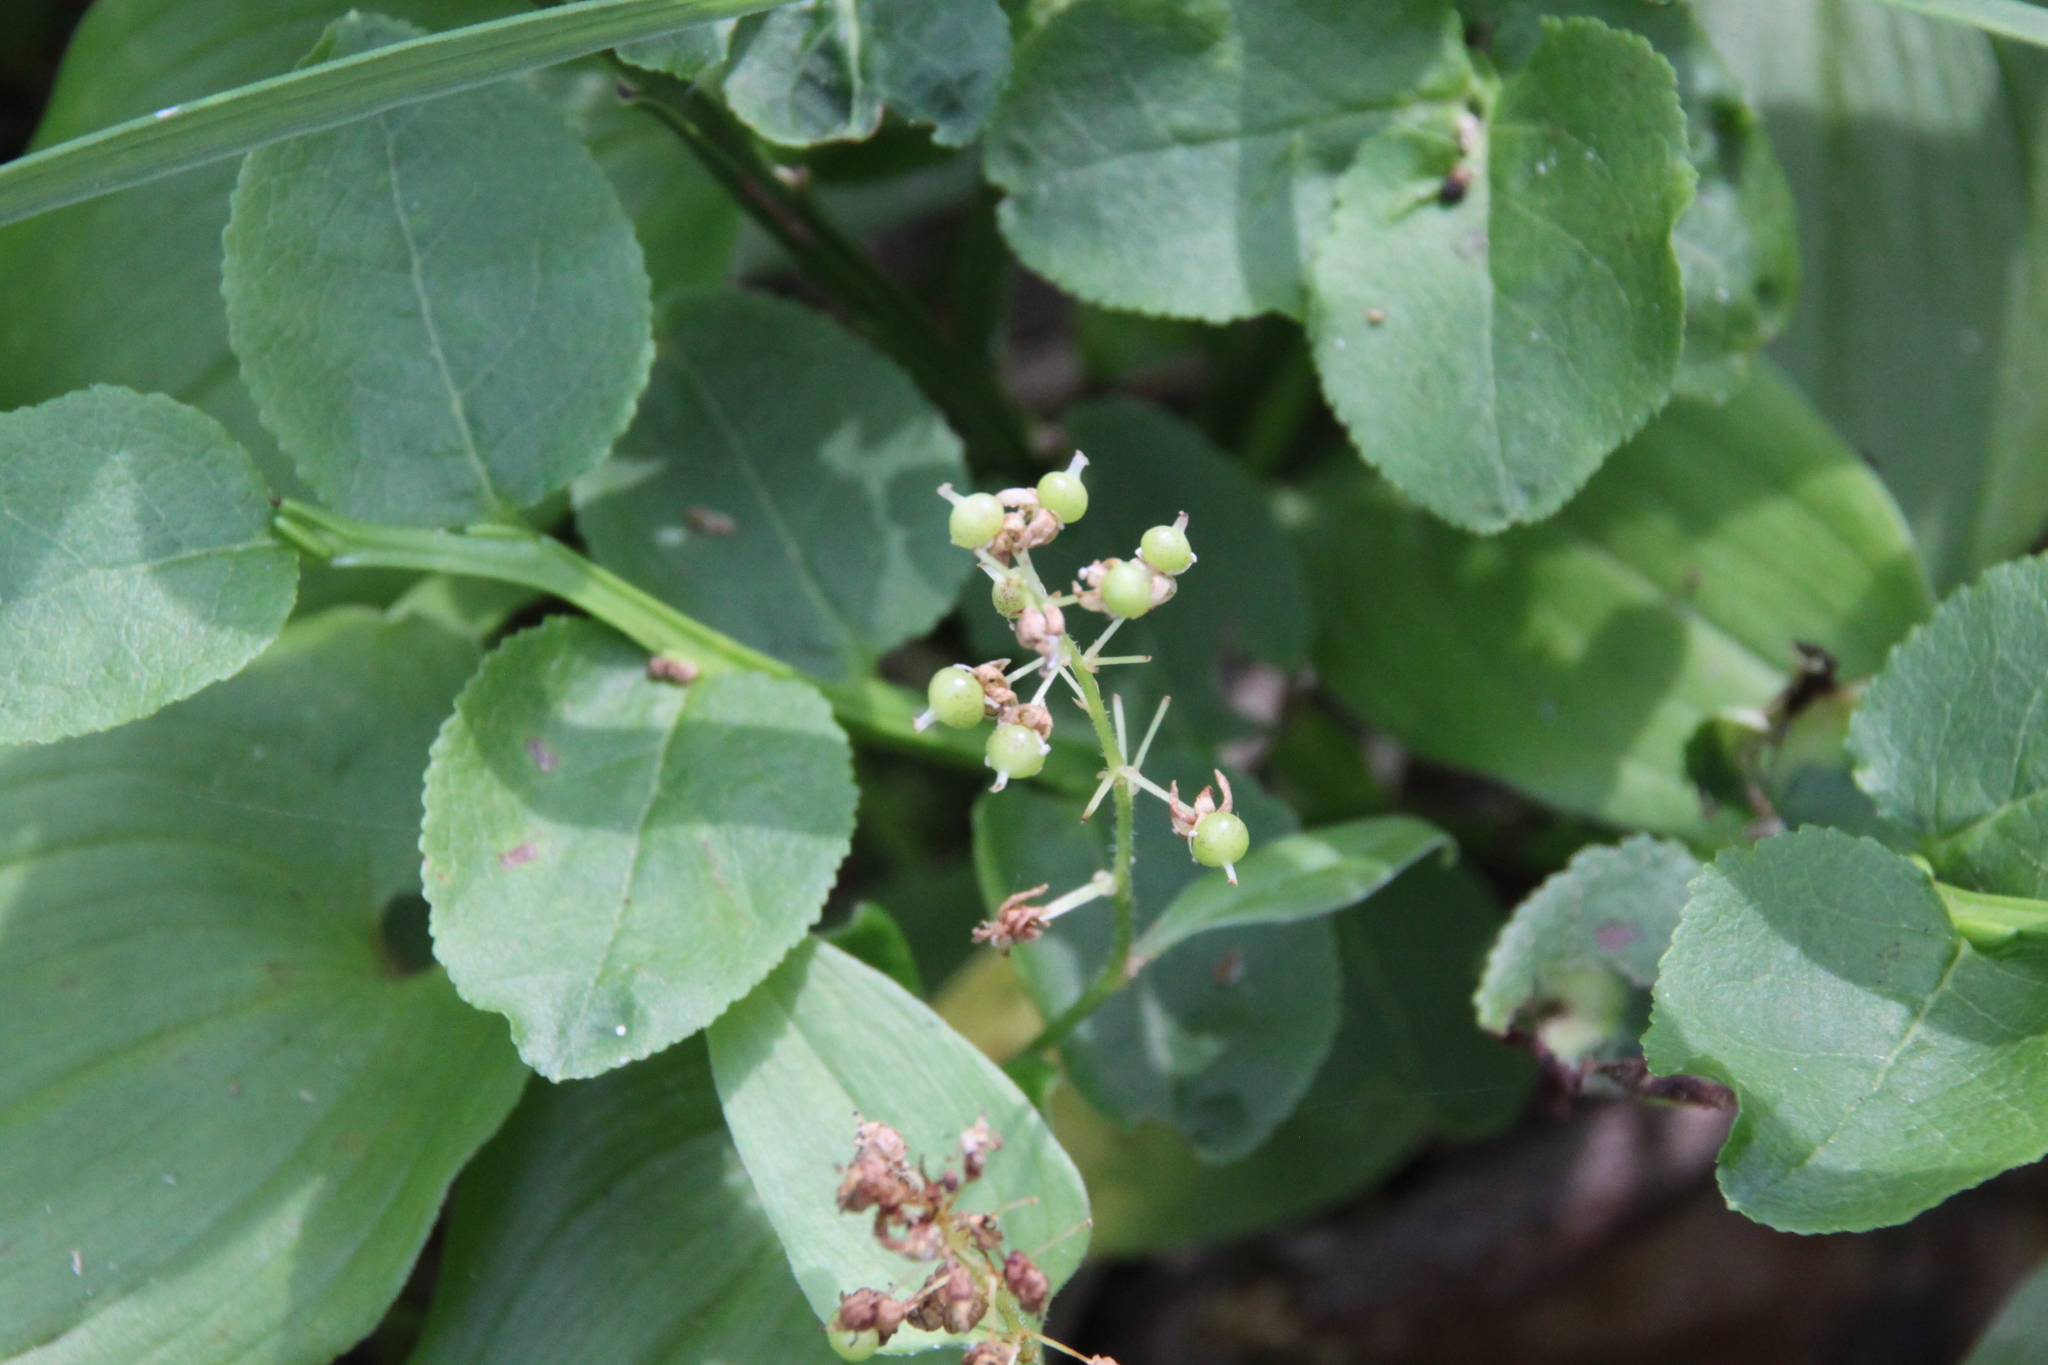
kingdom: Plantae
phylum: Tracheophyta
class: Magnoliopsida
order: Ericales
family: Ericaceae
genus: Vaccinium
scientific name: Vaccinium myrtillus
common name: Bilberry
